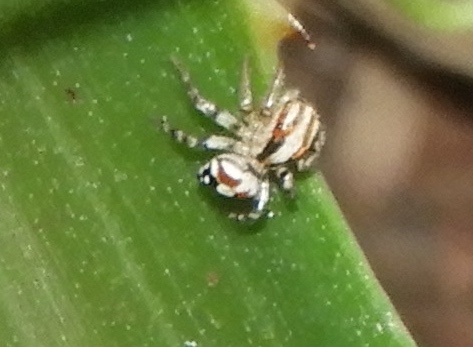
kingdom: Animalia
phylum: Arthropoda
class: Arachnida
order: Araneae
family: Salticidae
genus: Nycerella
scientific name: Nycerella delecta
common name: Jumping spiders
